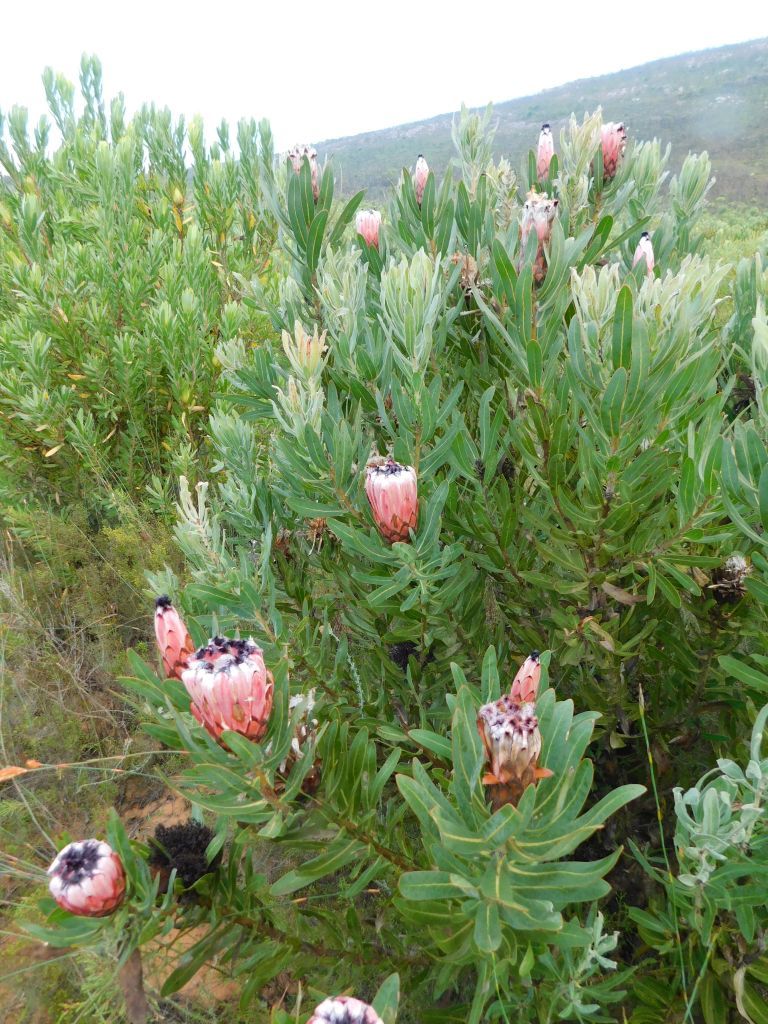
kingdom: Plantae
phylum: Tracheophyta
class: Magnoliopsida
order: Proteales
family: Proteaceae
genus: Protea
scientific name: Protea neriifolia
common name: Blue sugarbush
